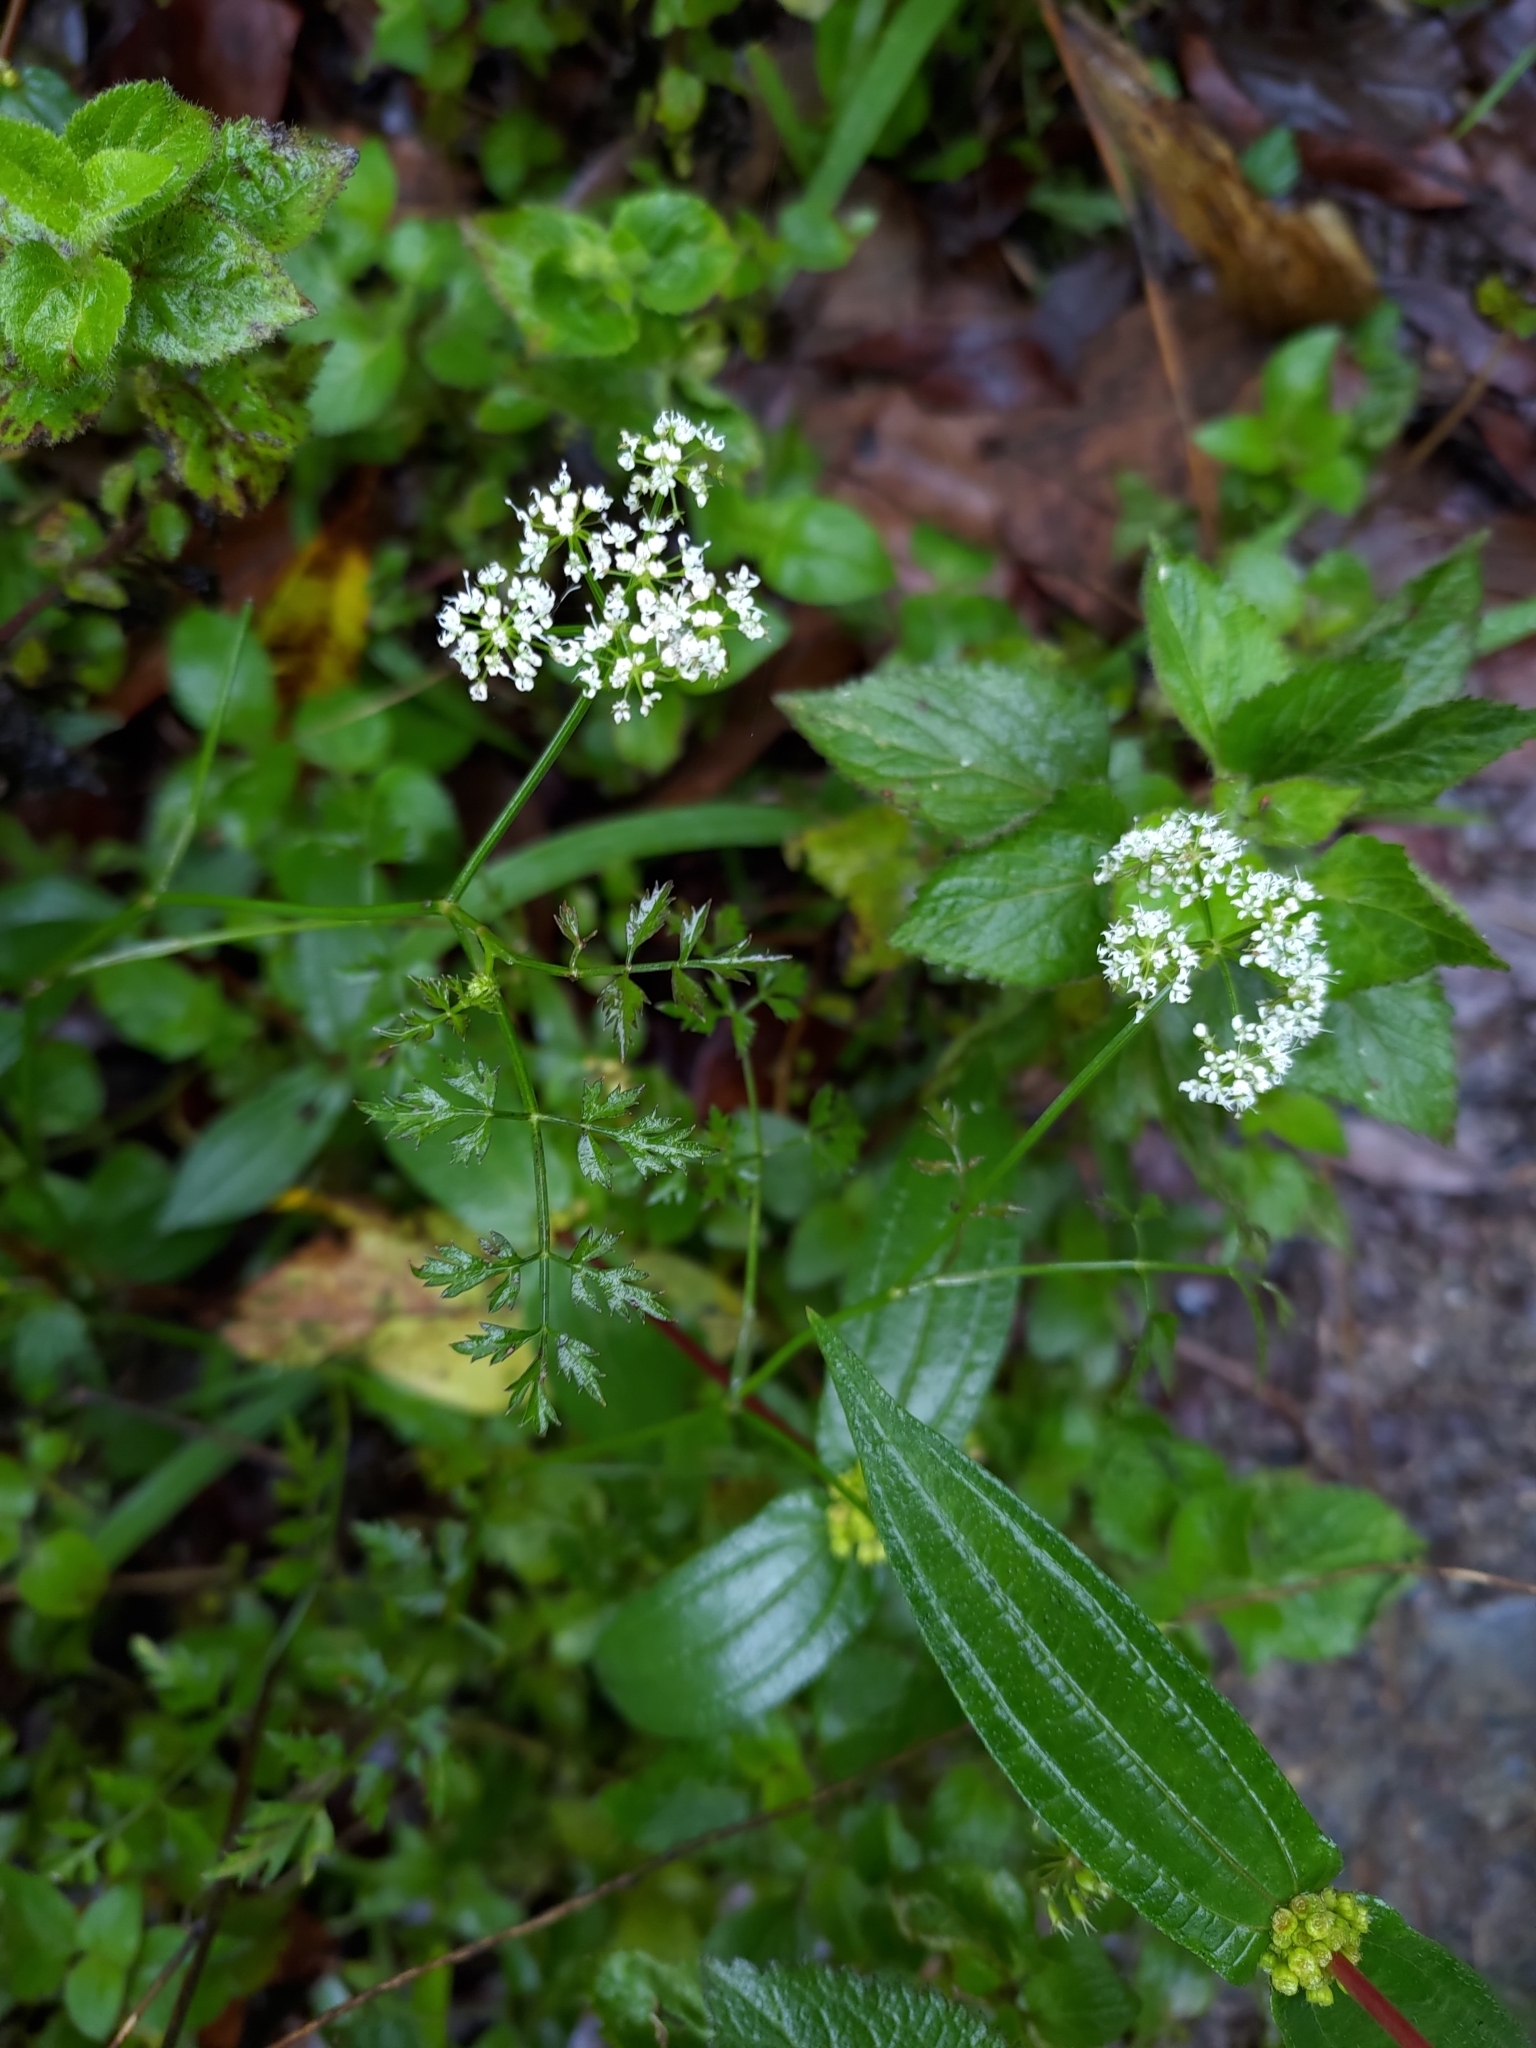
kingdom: Plantae
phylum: Tracheophyta
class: Magnoliopsida
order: Apiales
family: Apiaceae
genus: Oenanthe
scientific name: Oenanthe javanica
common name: Java water-dropwort
